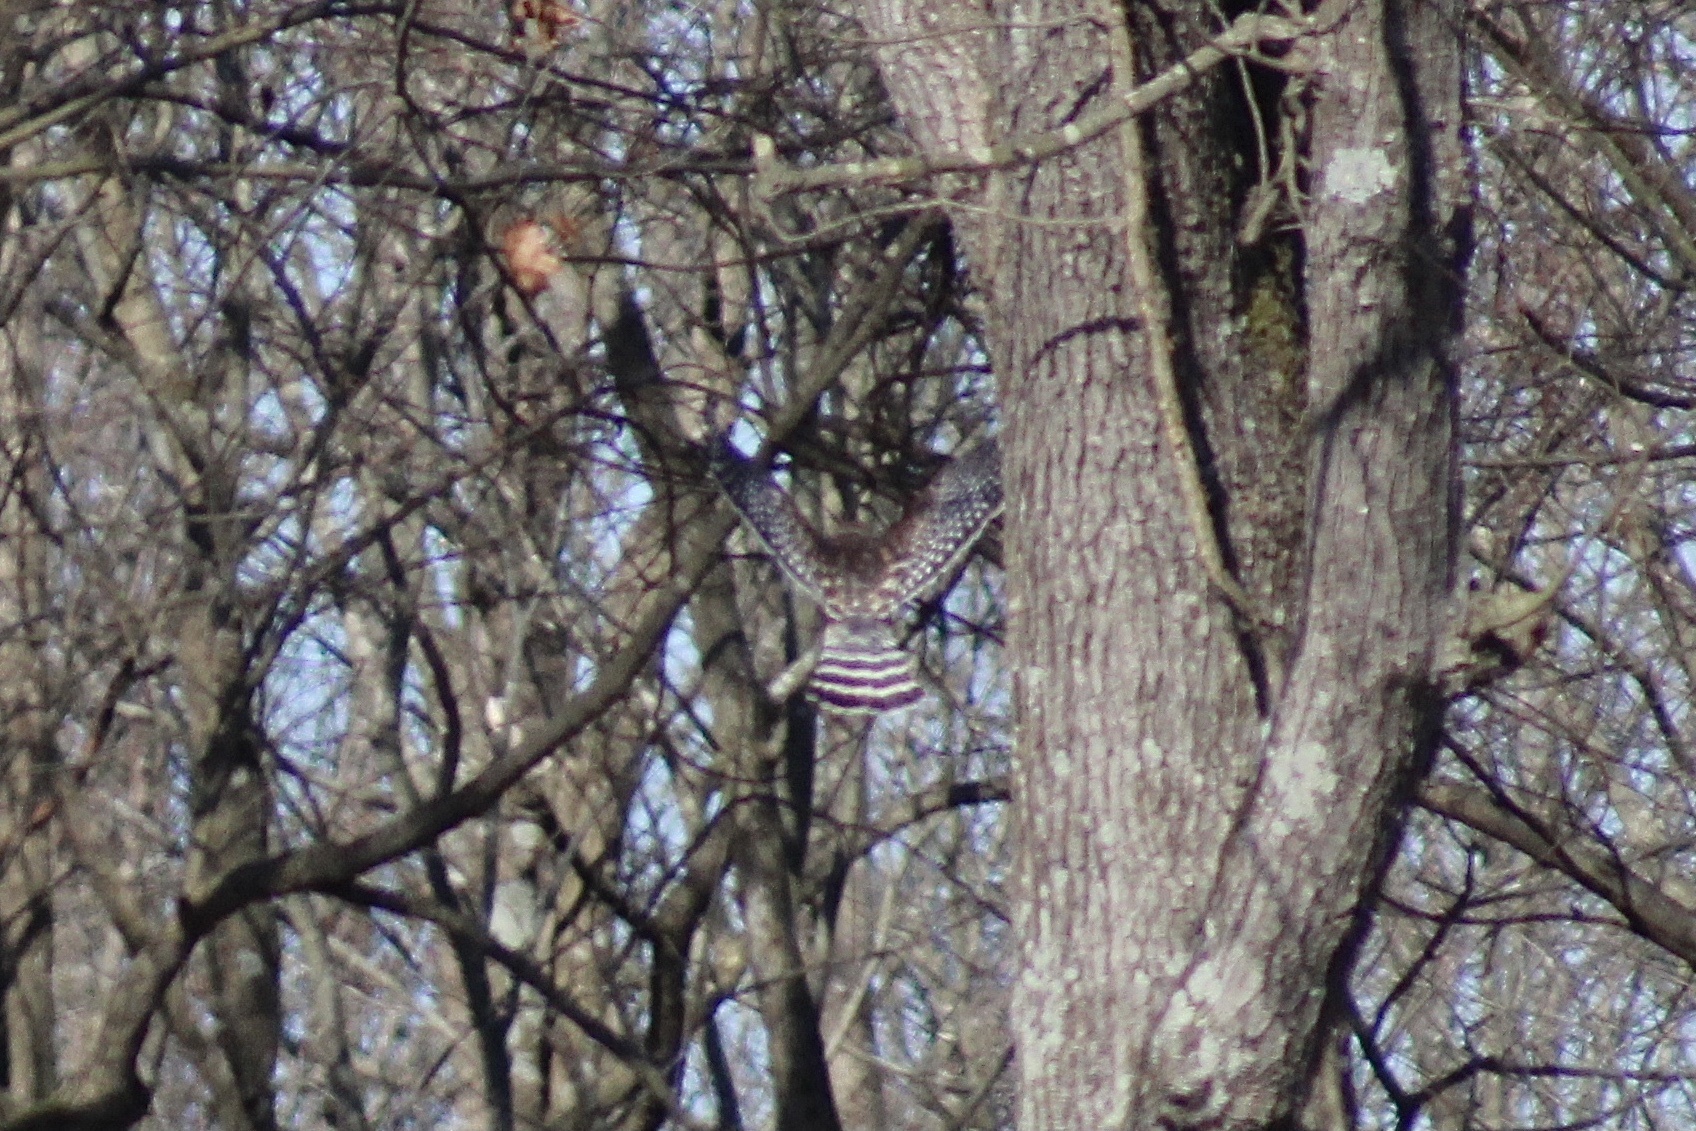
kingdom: Animalia
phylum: Chordata
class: Aves
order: Accipitriformes
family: Accipitridae
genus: Buteo
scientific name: Buteo lineatus
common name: Red-shouldered hawk
